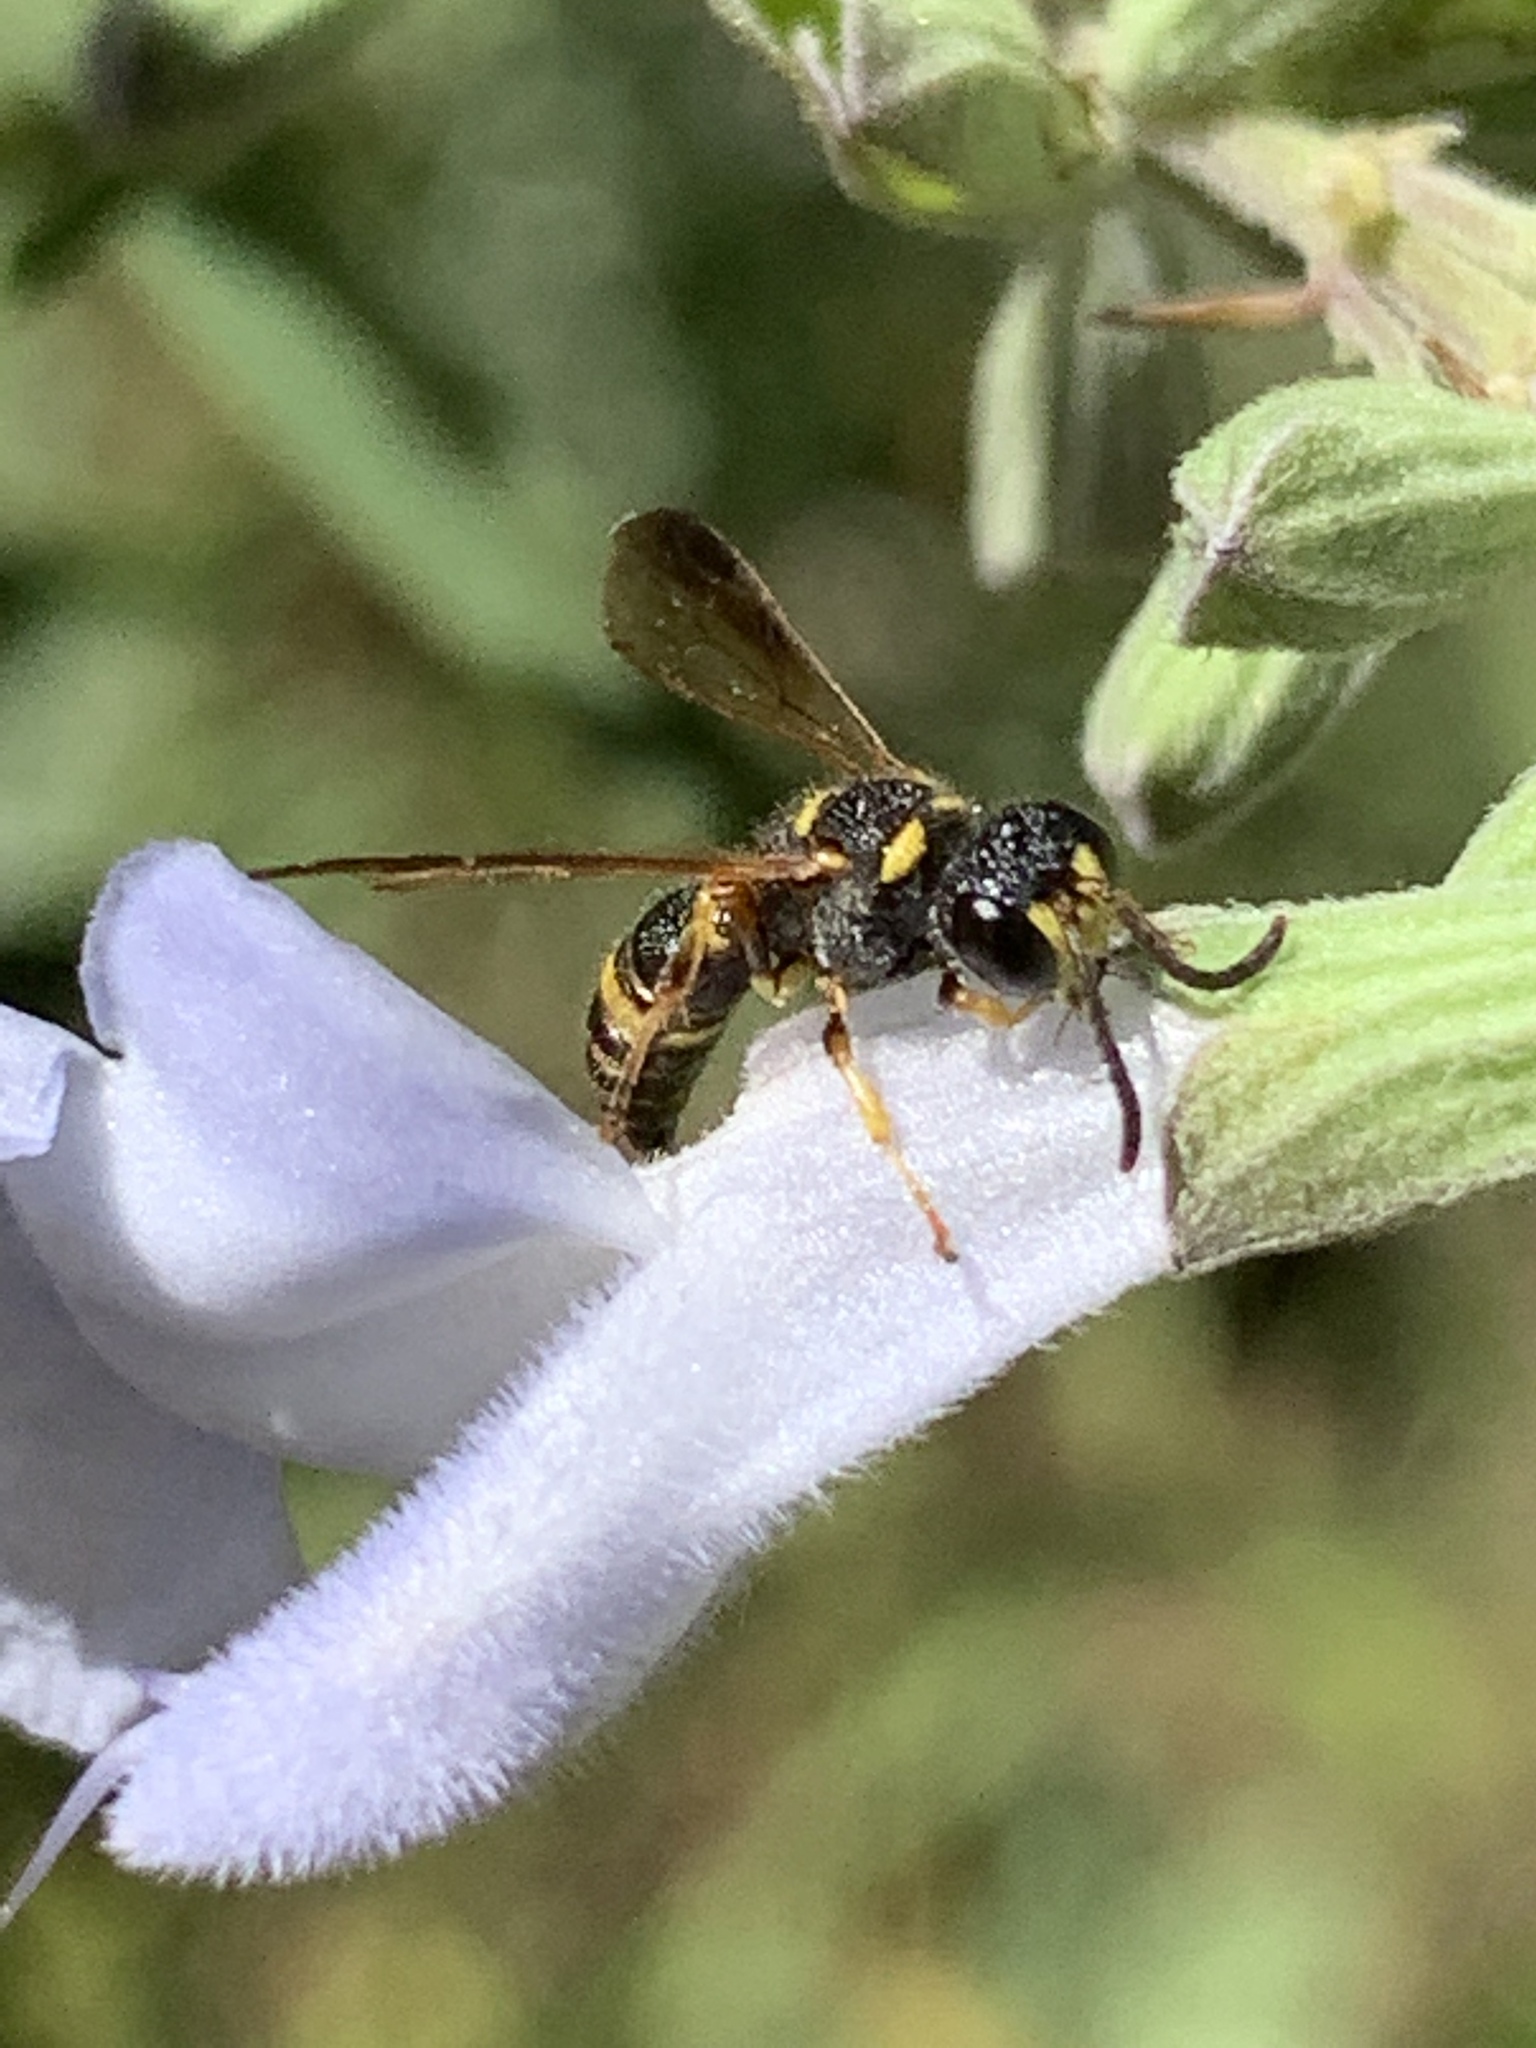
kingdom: Animalia
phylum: Arthropoda
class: Insecta
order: Hymenoptera
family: Crabronidae
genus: Cerceris
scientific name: Cerceris insolita
